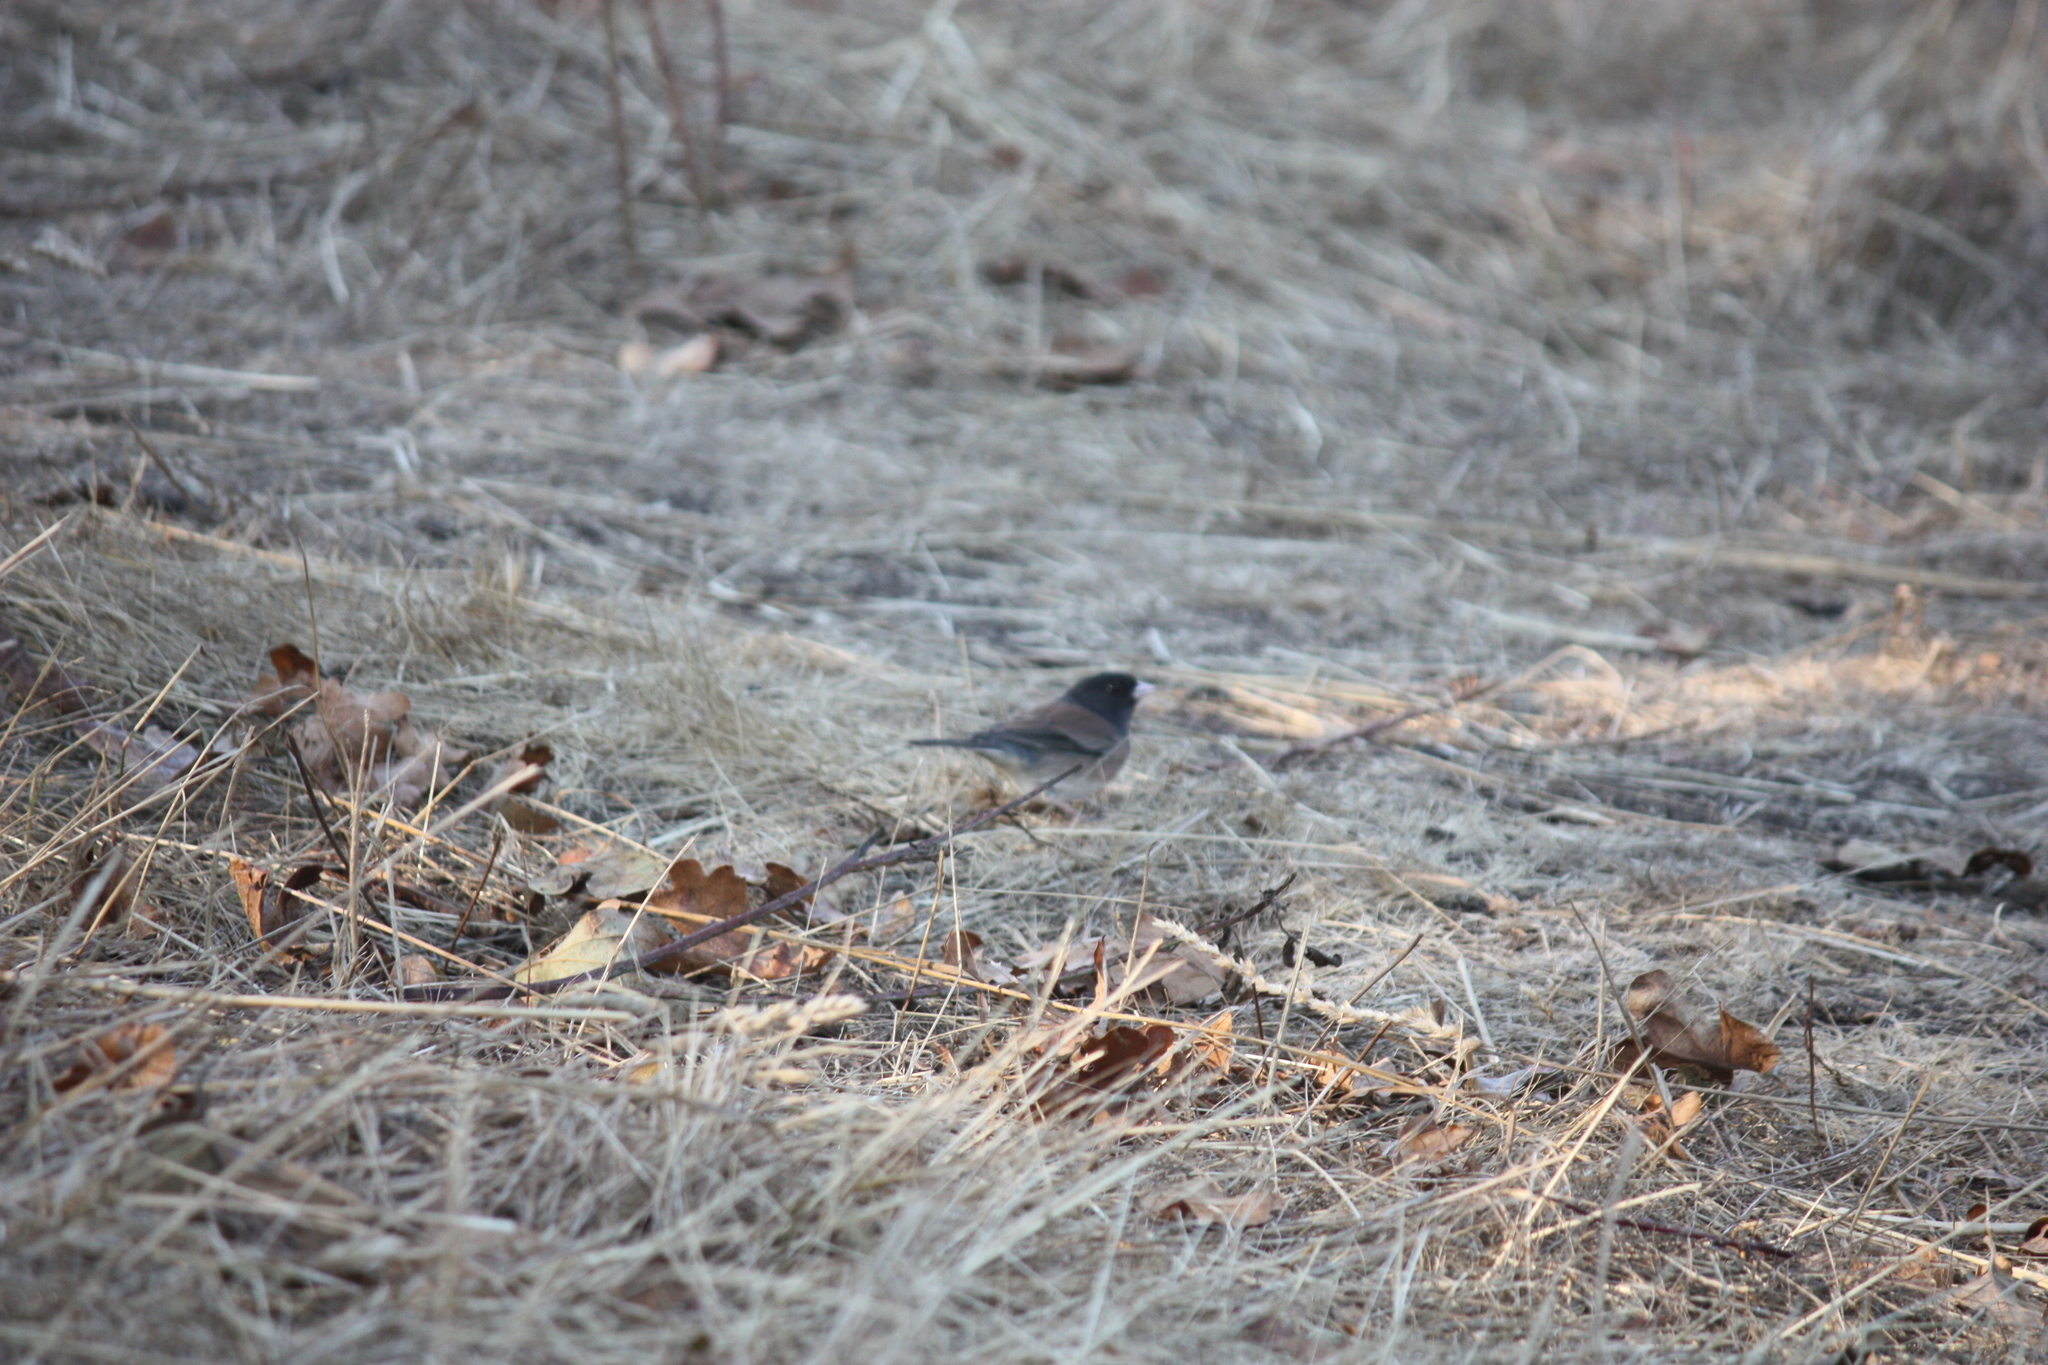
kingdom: Animalia
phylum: Chordata
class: Aves
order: Passeriformes
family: Passerellidae
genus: Junco
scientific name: Junco hyemalis
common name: Dark-eyed junco
